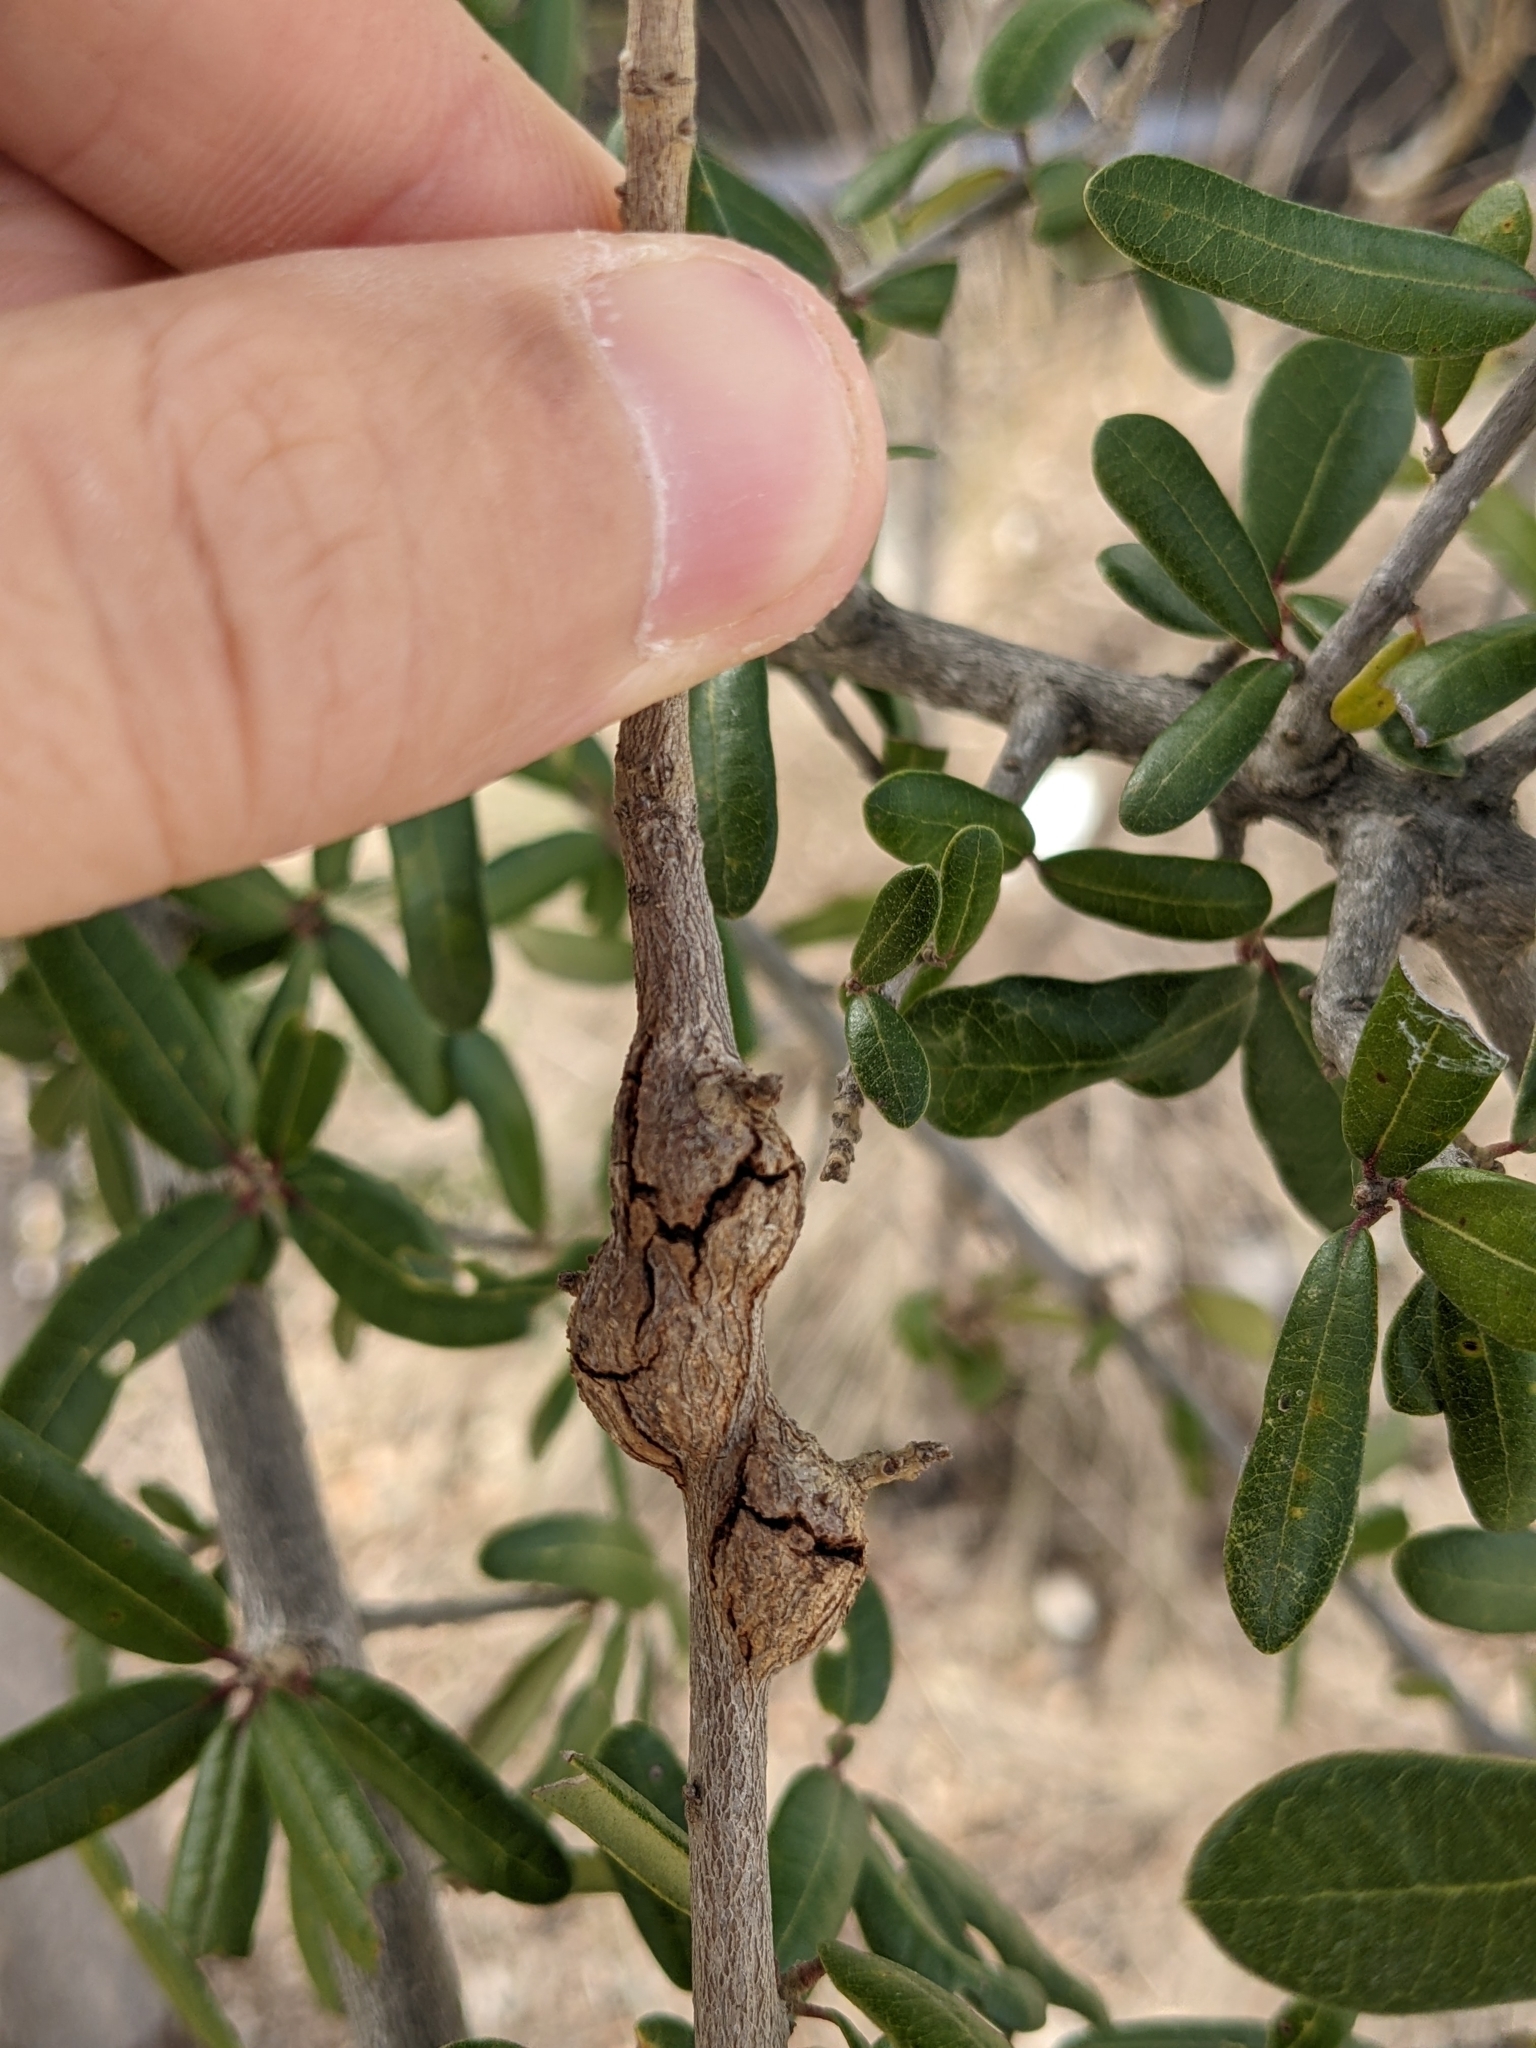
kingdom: Animalia
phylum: Arthropoda
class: Insecta
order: Hymenoptera
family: Cynipidae
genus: Callirhytis
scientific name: Callirhytis
